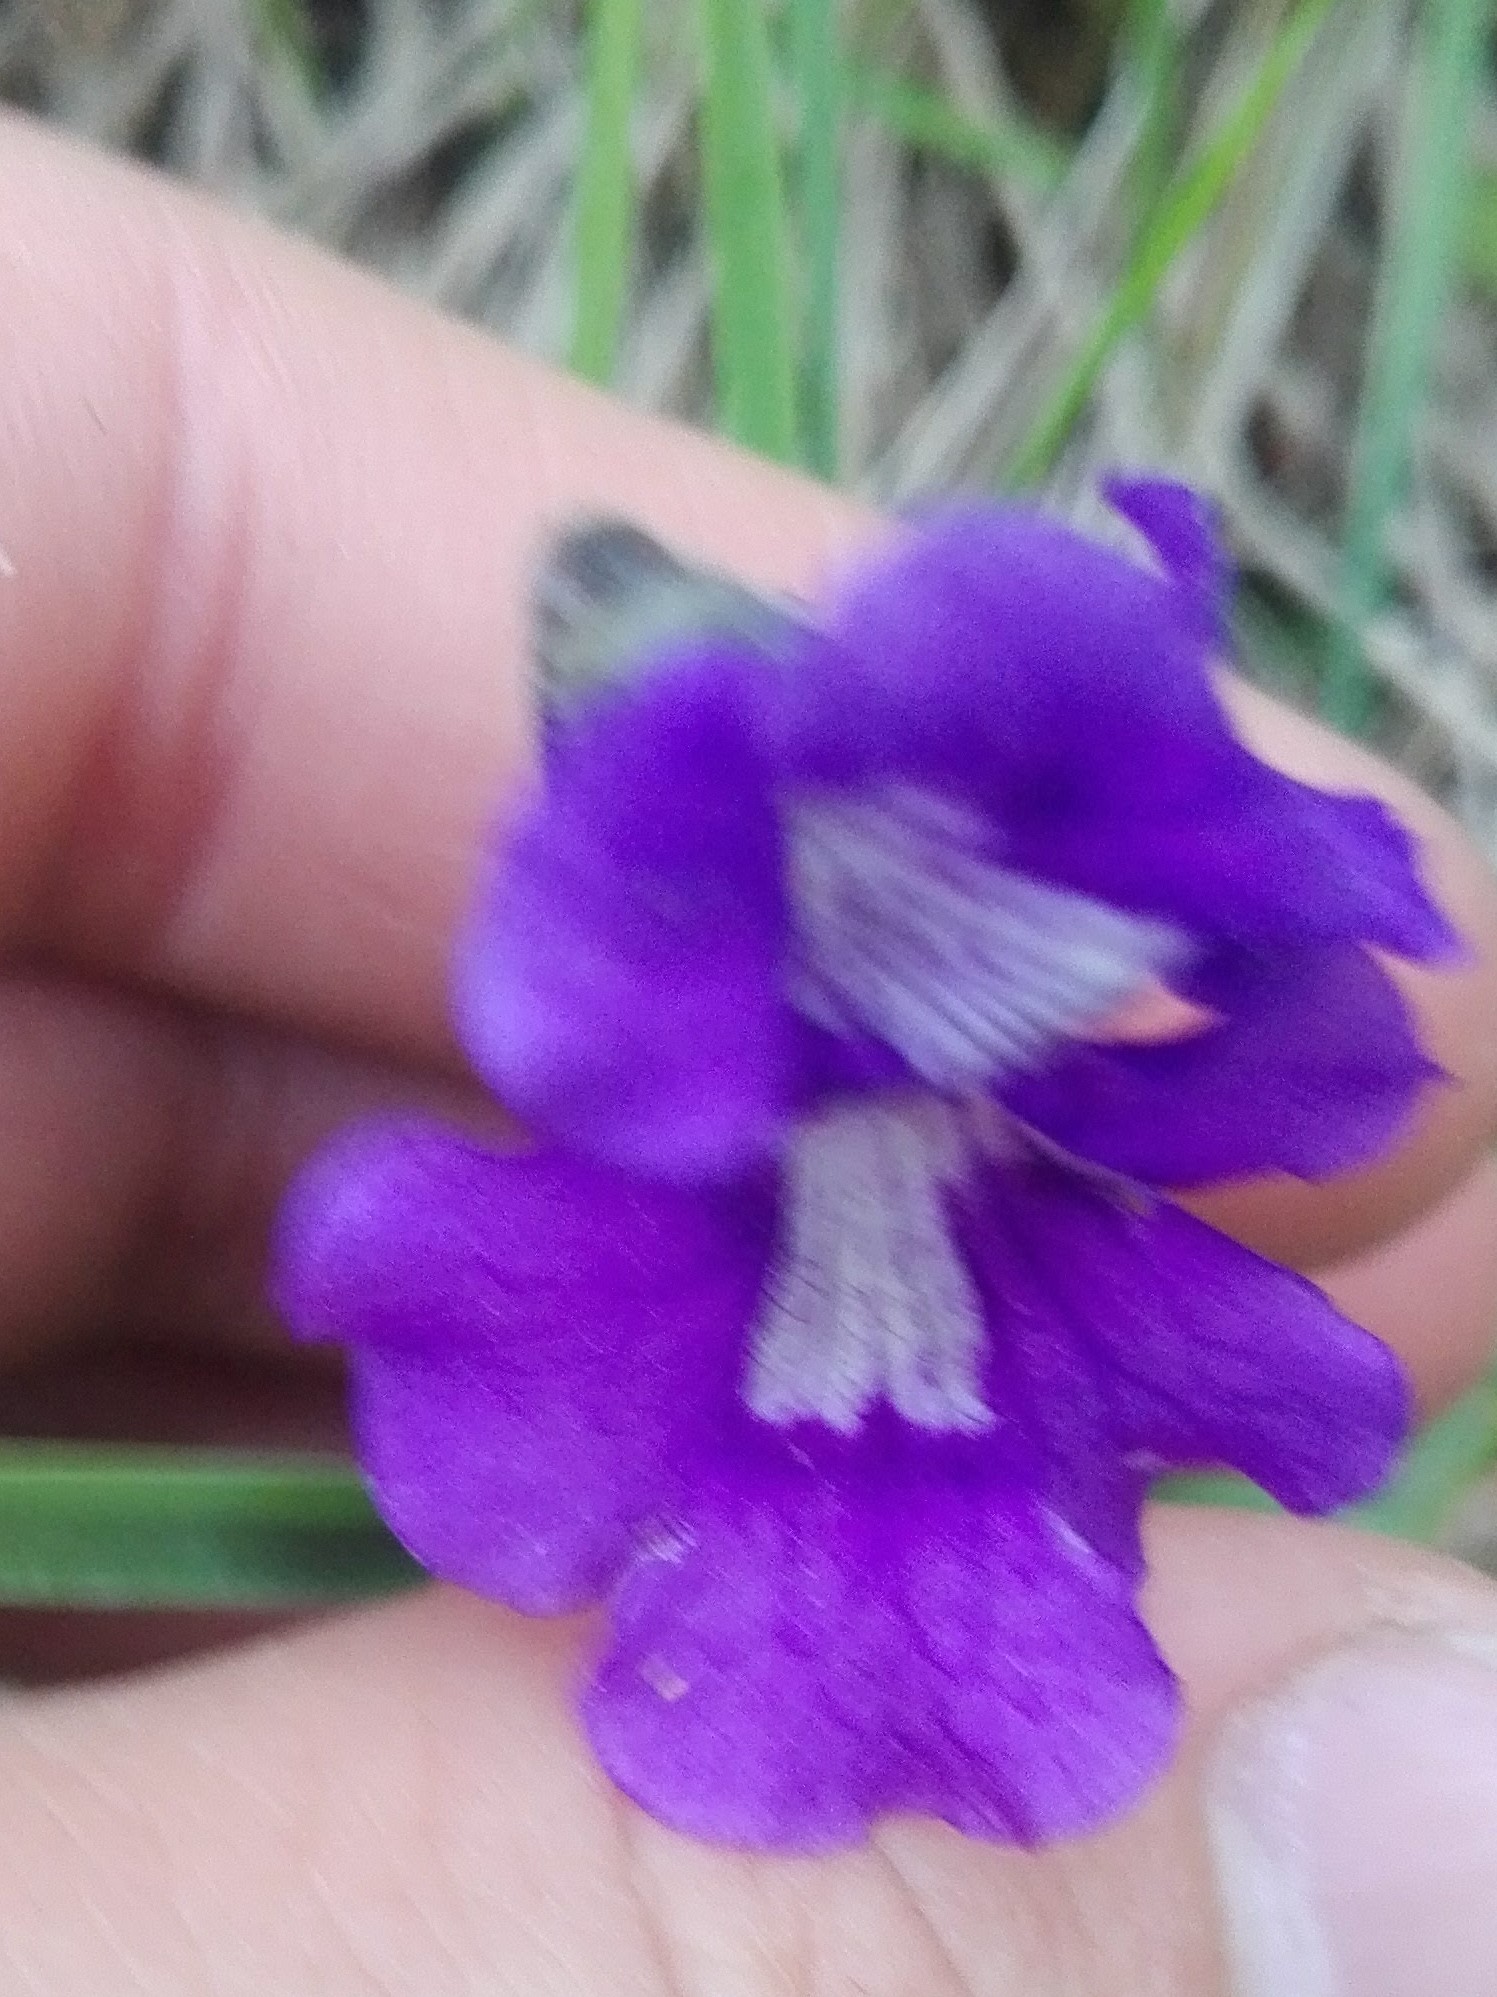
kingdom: Plantae
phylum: Tracheophyta
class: Magnoliopsida
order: Lamiales
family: Lentibulariaceae
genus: Pinguicula
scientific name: Pinguicula grandiflora
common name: Large-flowered butterwort
